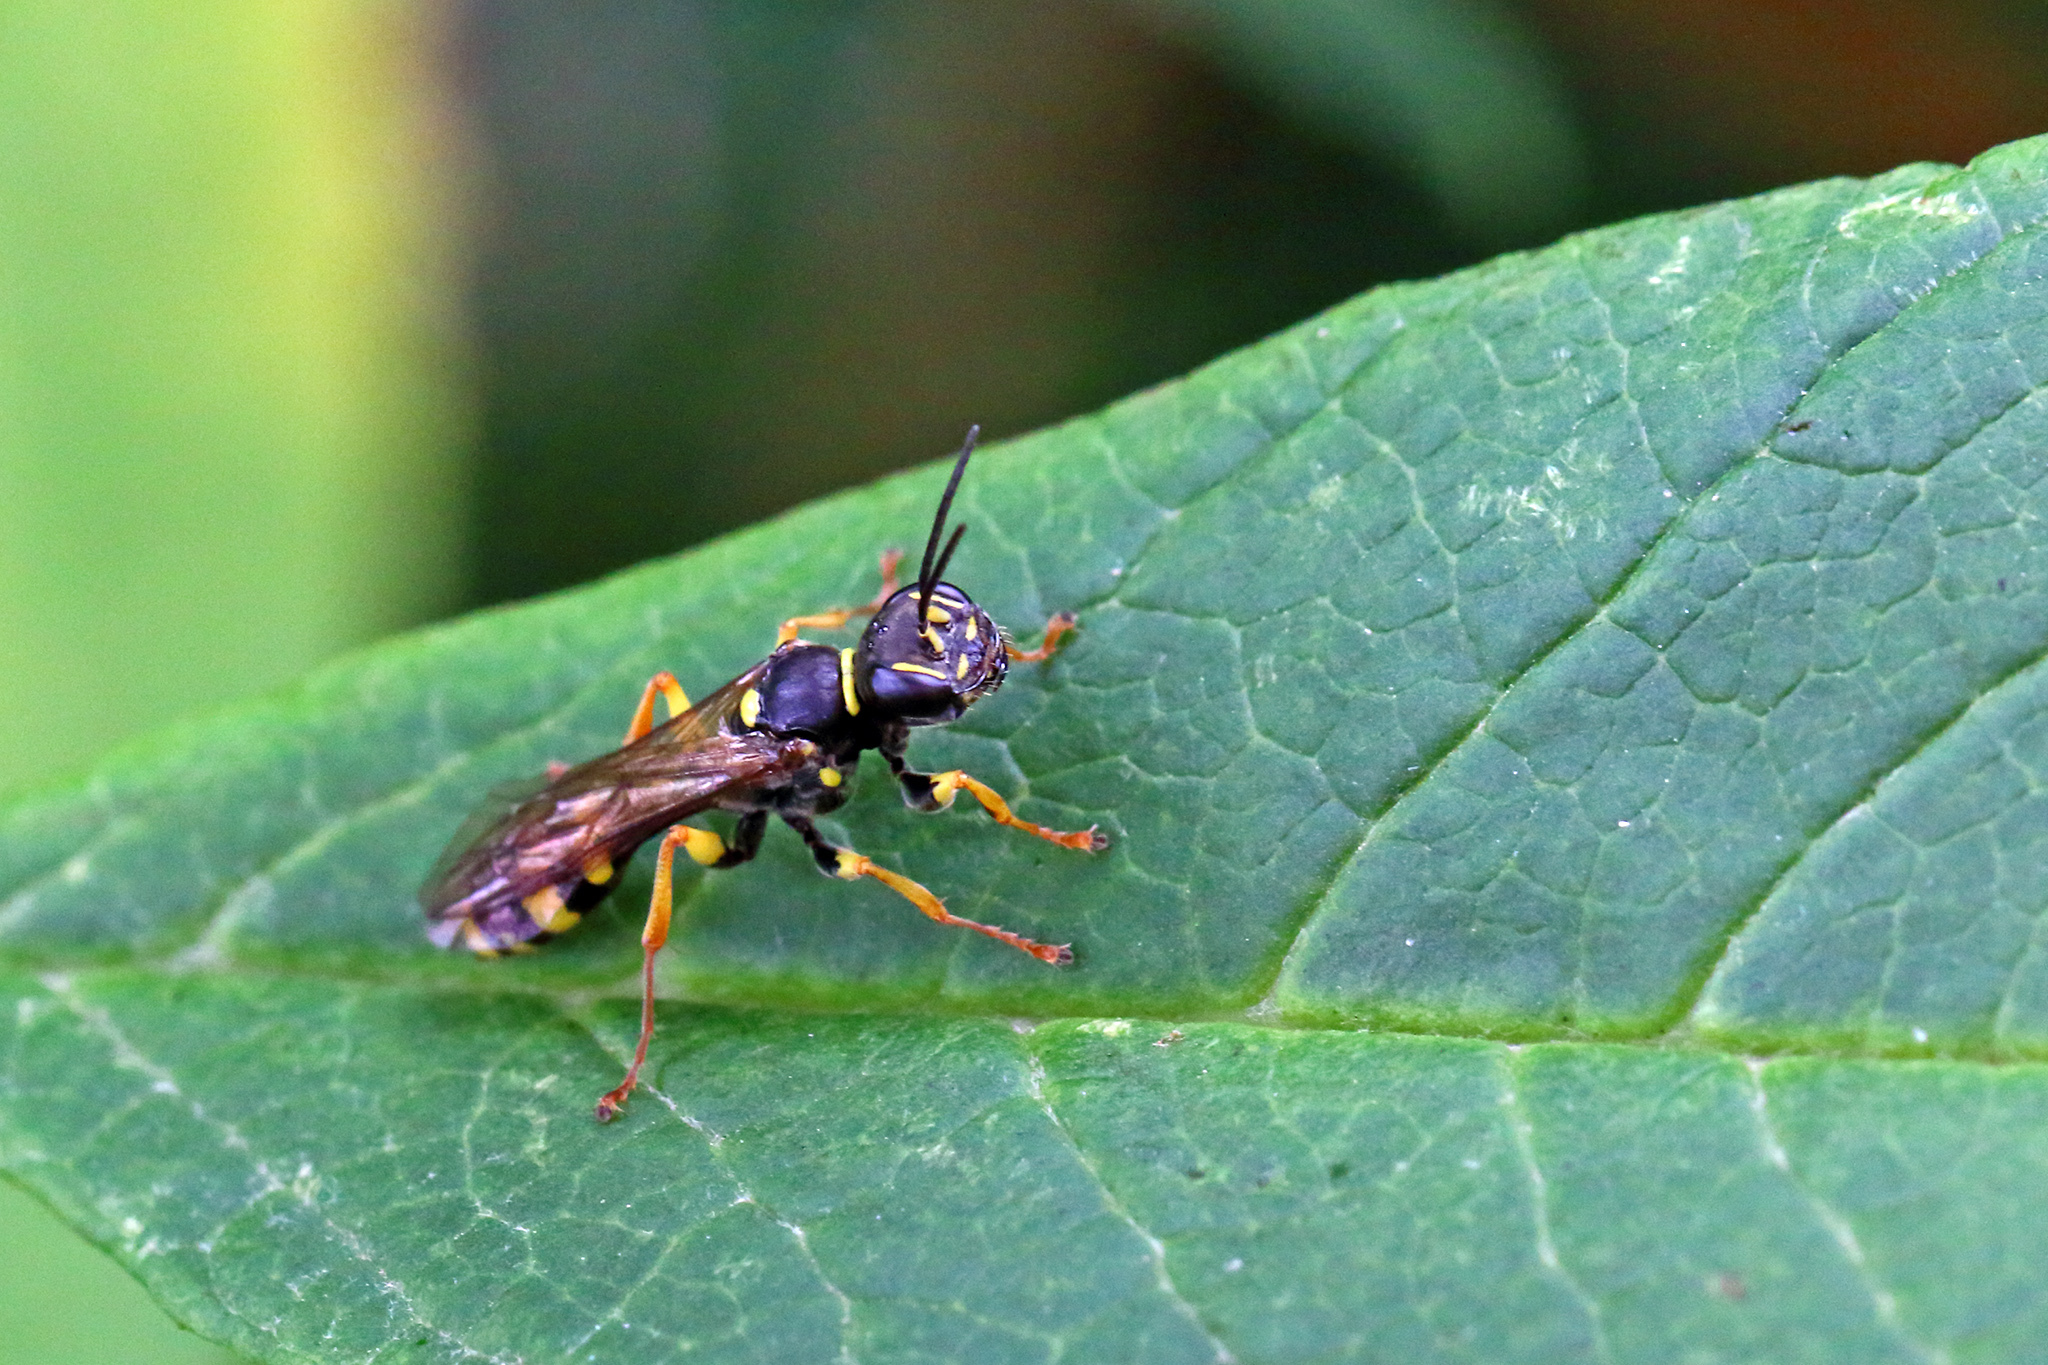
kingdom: Animalia
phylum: Arthropoda
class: Insecta
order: Hymenoptera
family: Crabronidae
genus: Mellinus
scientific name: Mellinus arvensis
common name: Field digger wasp
